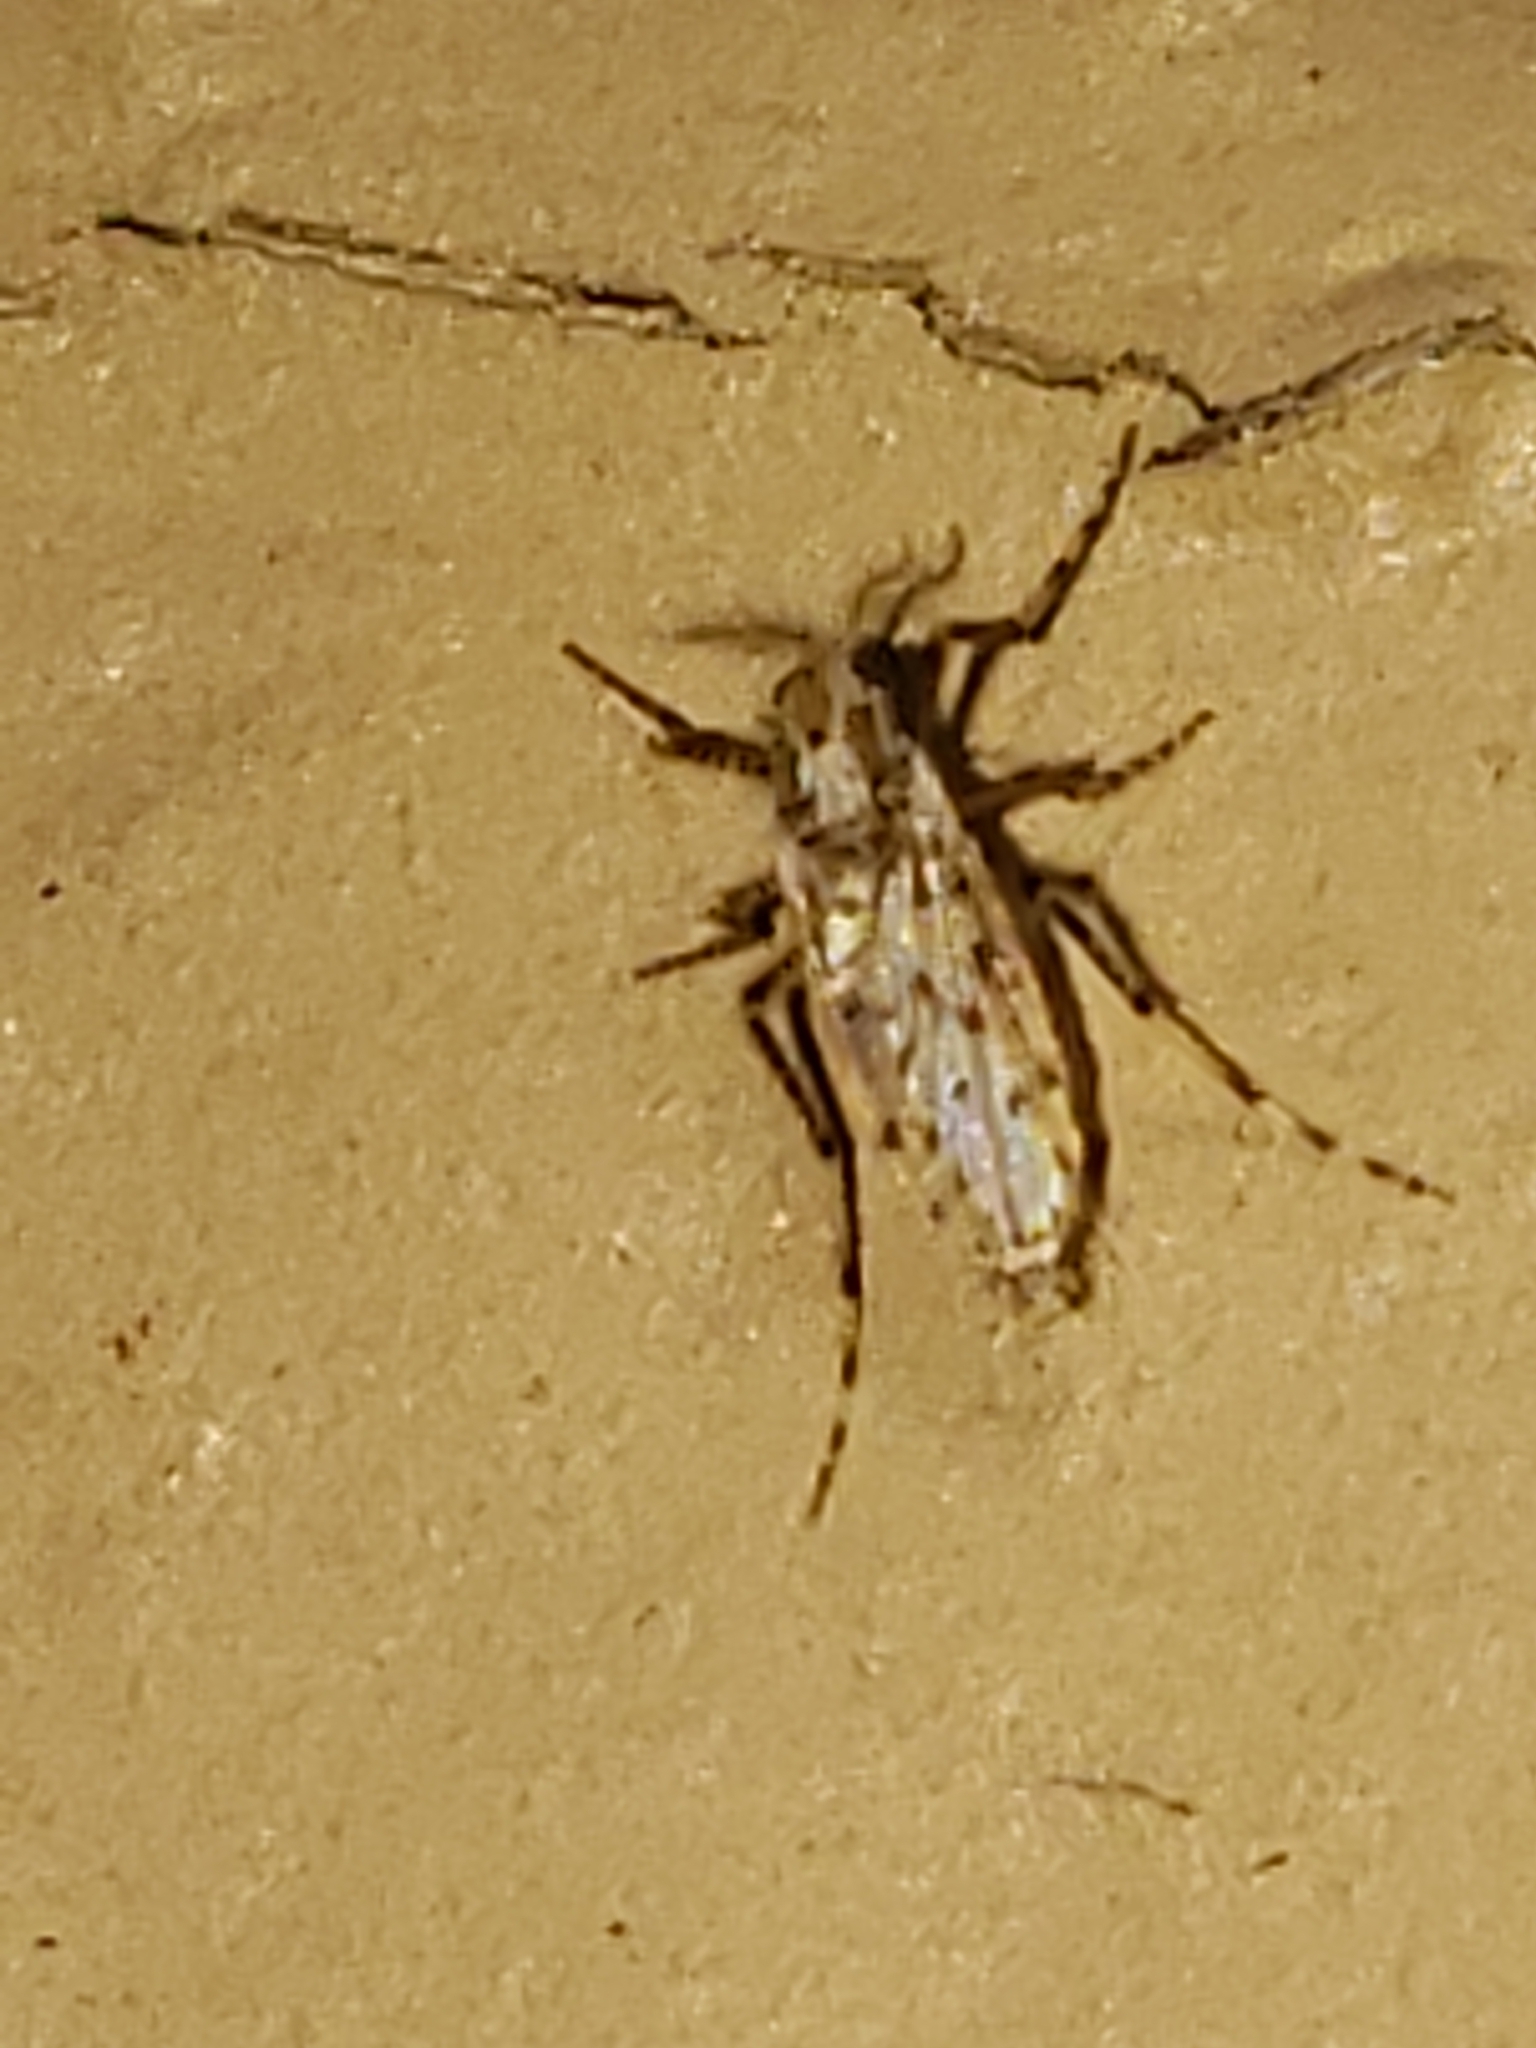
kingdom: Animalia
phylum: Arthropoda
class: Insecta
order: Diptera
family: Chaoboridae
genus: Chaoborus
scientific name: Chaoborus punctipennis
